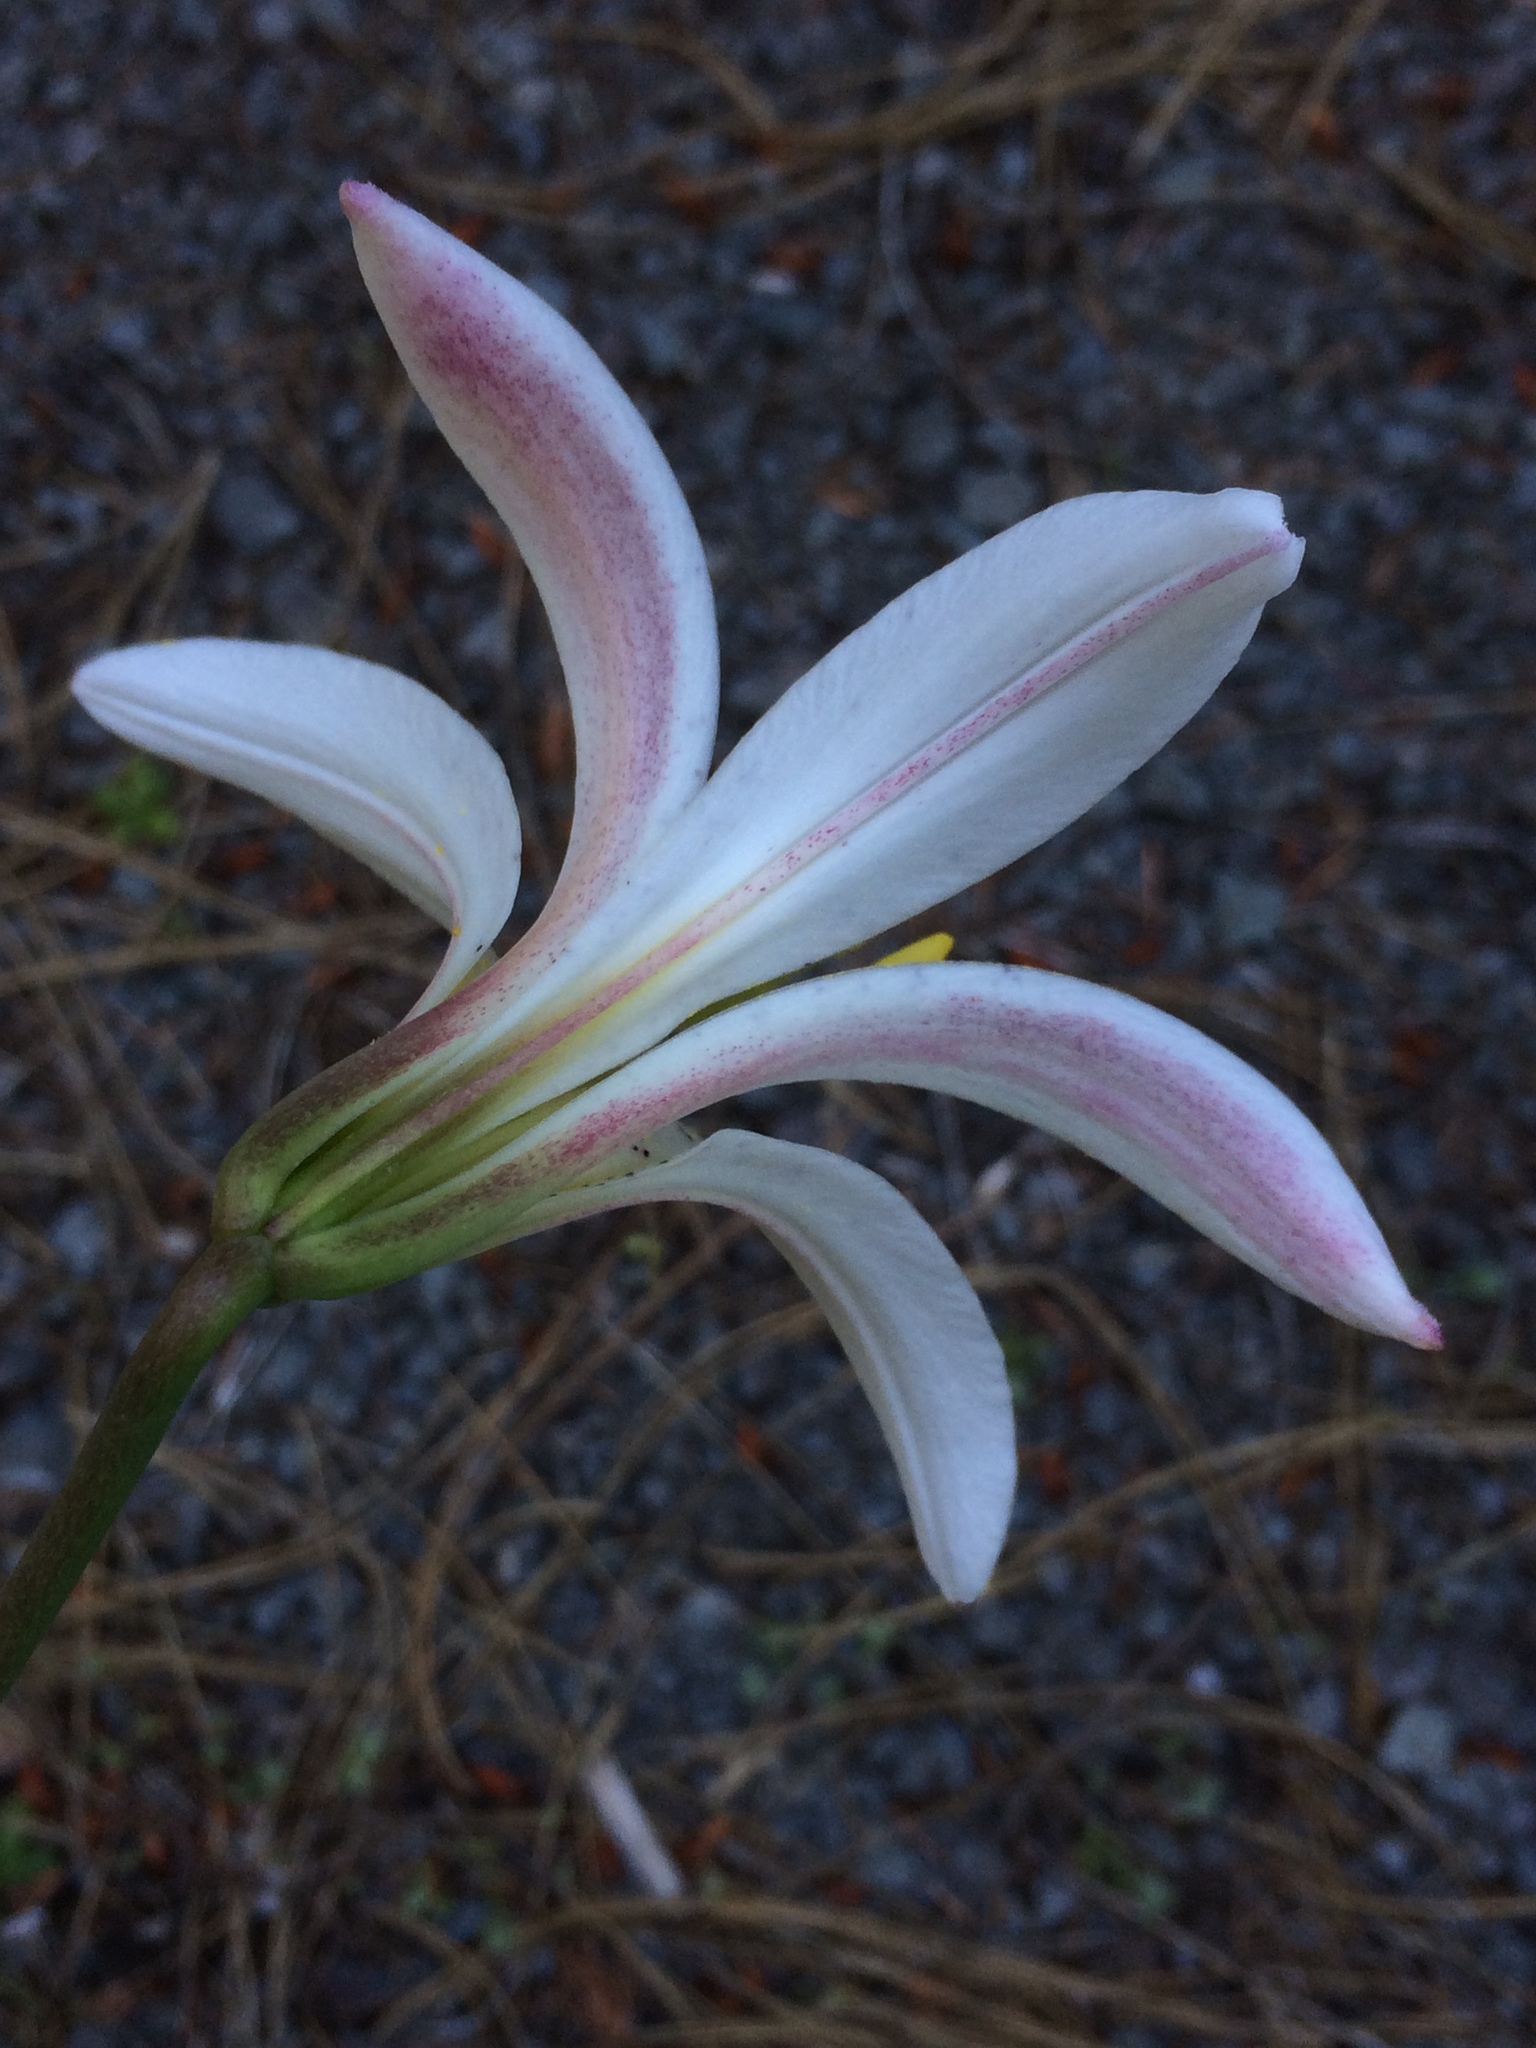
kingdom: Plantae
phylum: Tracheophyta
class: Liliopsida
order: Liliales
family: Liliaceae
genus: Lilium
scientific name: Lilium washingtonianum
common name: Washington lily
